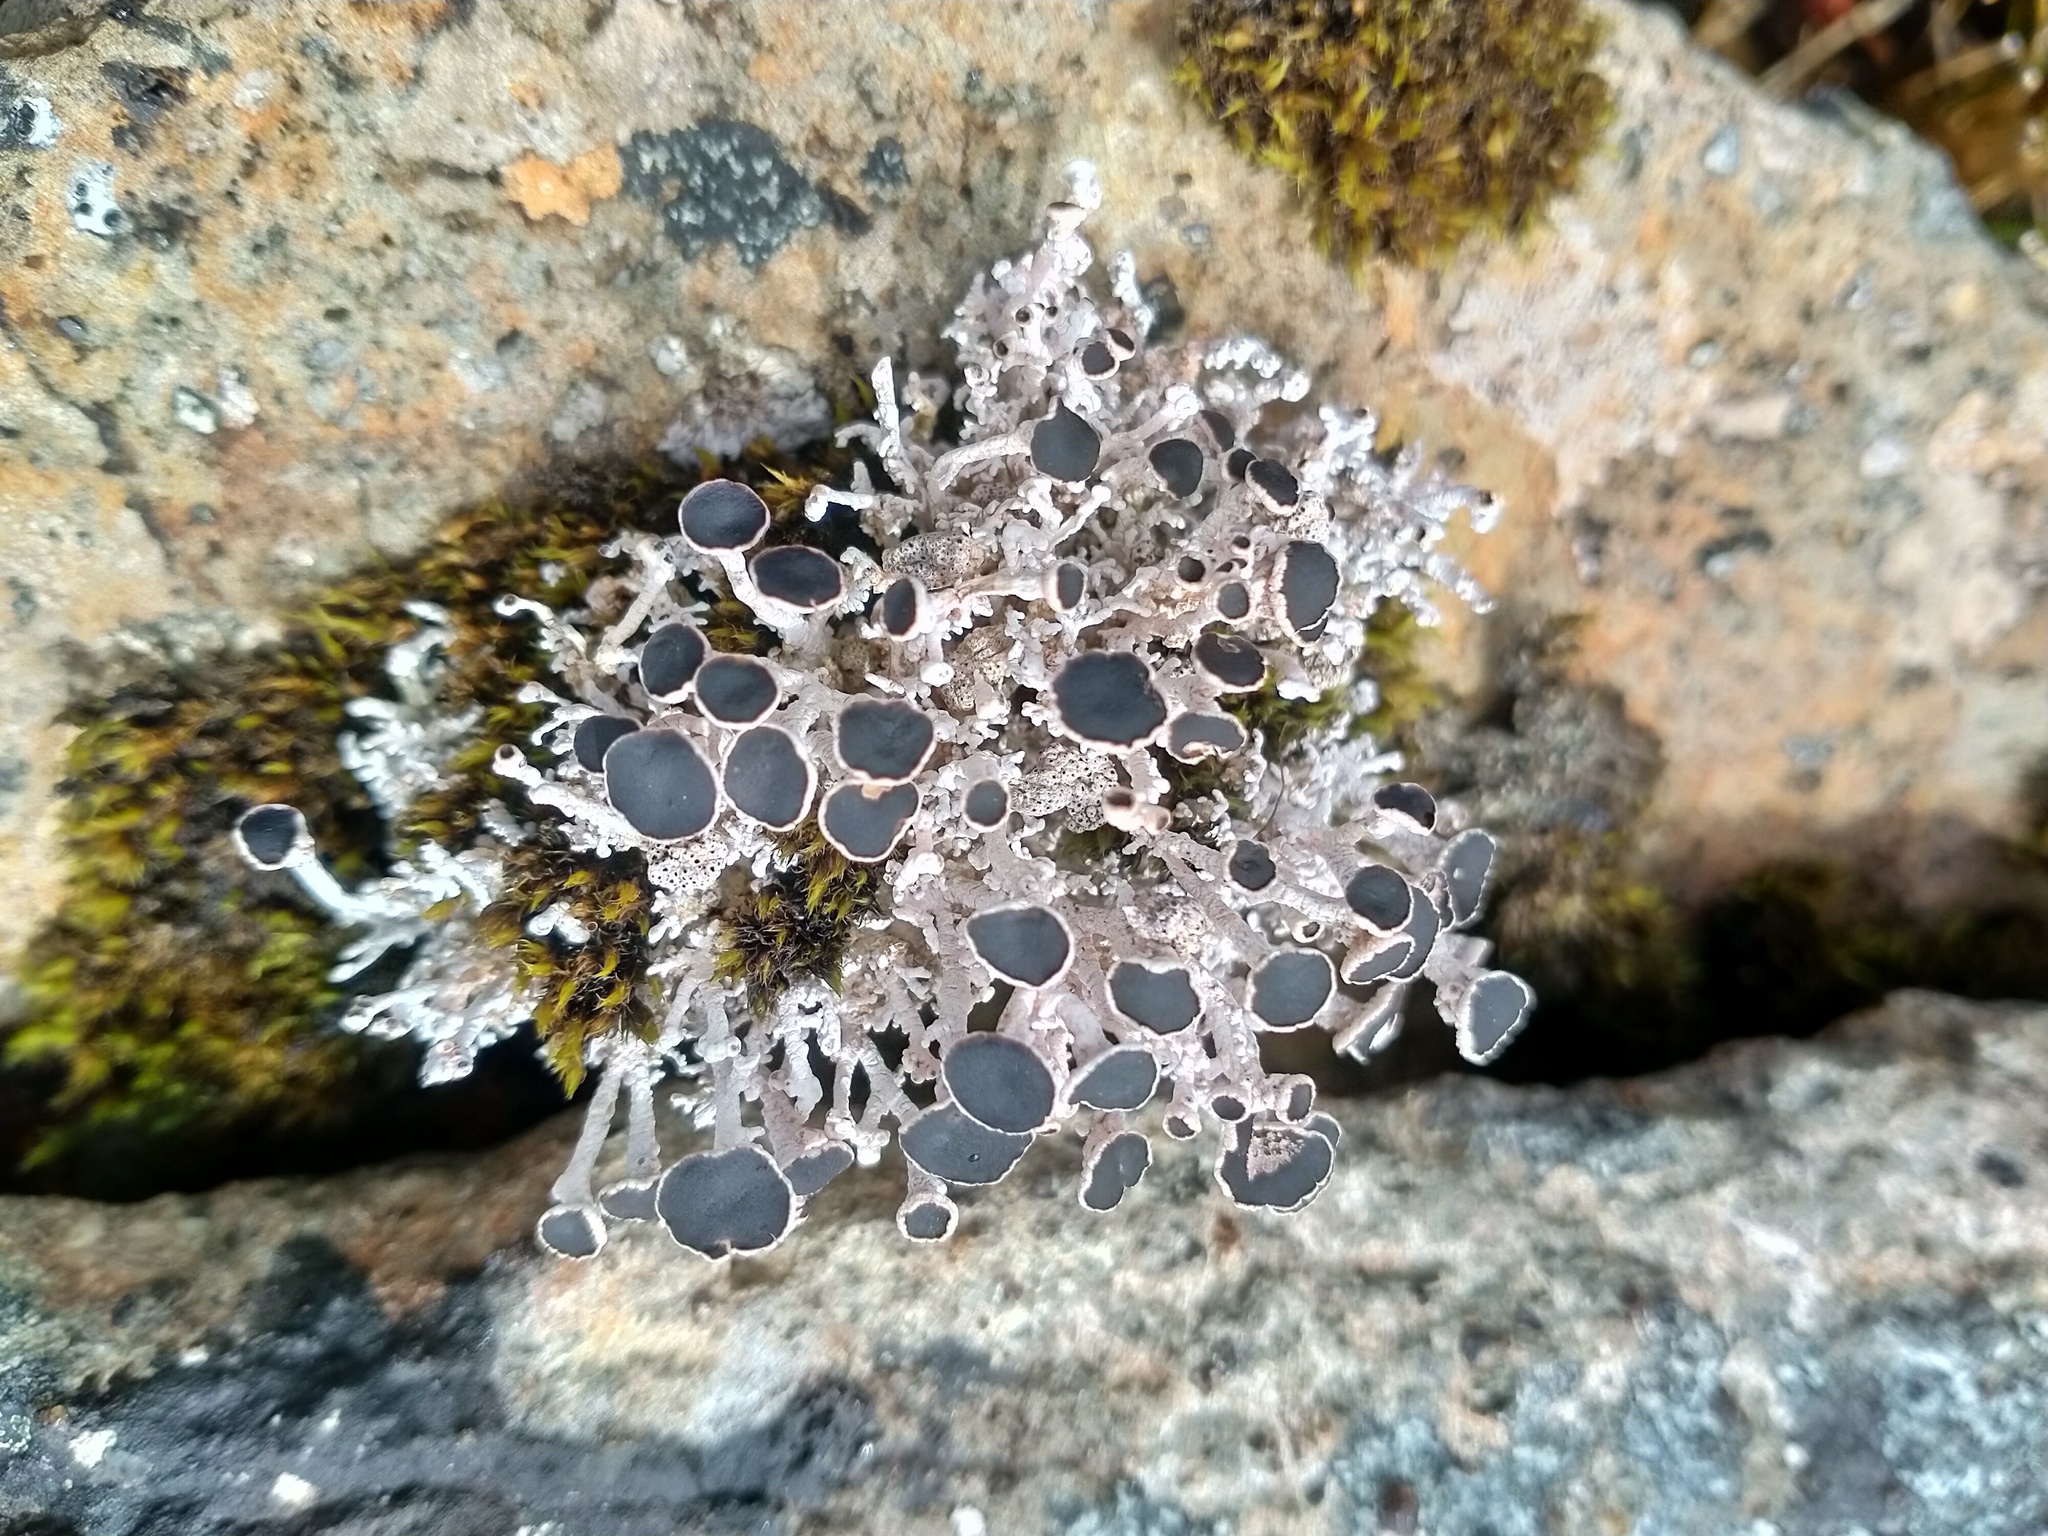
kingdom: Fungi
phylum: Ascomycota
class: Lecanoromycetes
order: Lecanorales
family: Stereocaulaceae
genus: Stereocaulon
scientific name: Stereocaulon argus
